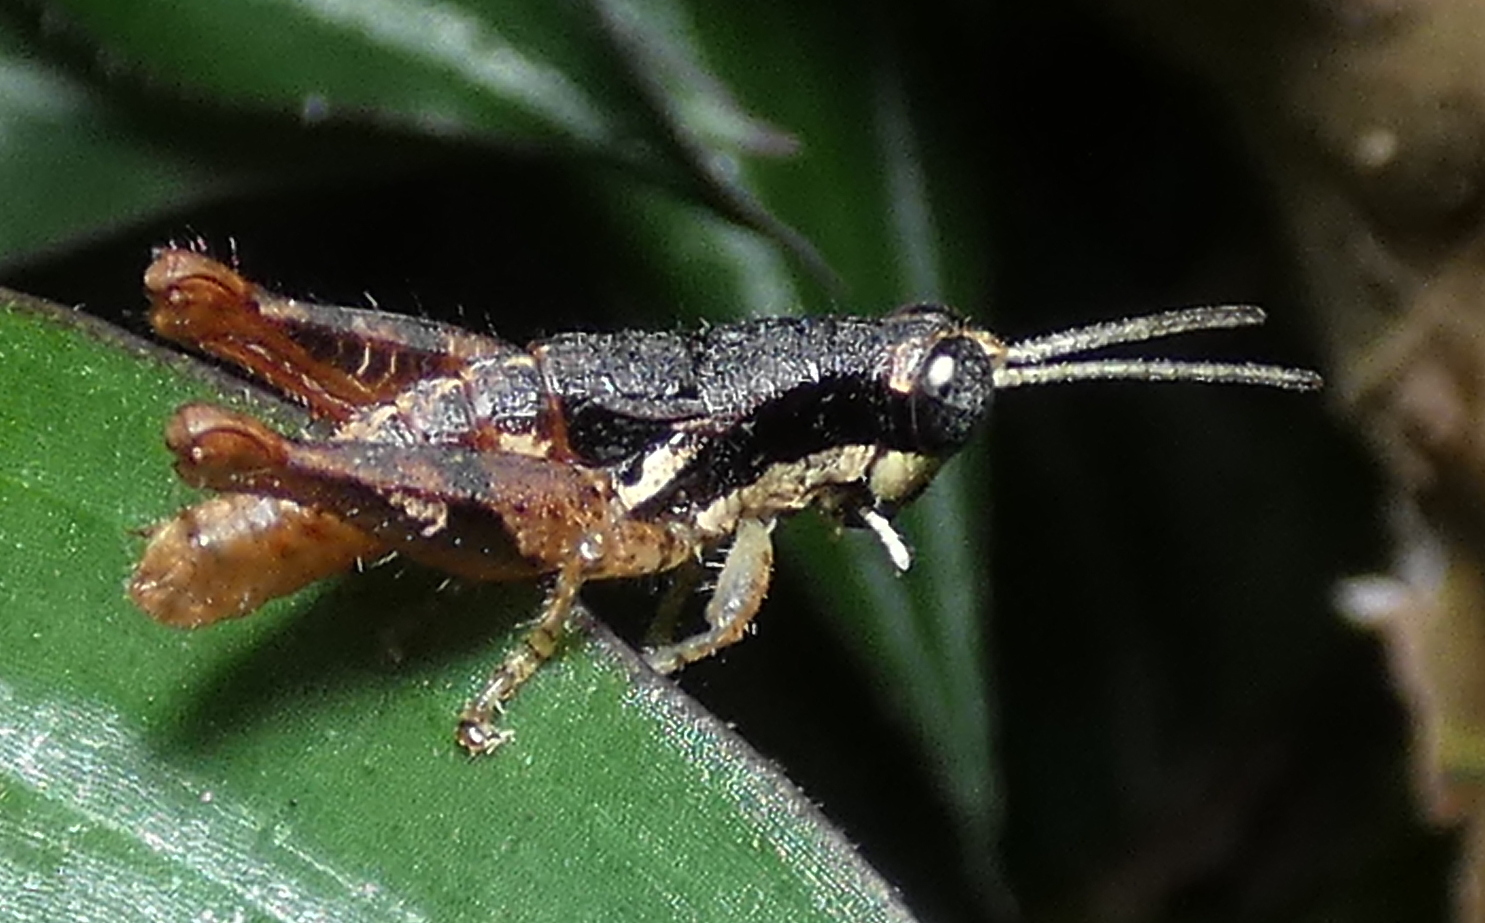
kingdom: Animalia
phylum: Arthropoda
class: Insecta
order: Orthoptera
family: Acrididae
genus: Eujivarus
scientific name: Eujivarus meridionalis
